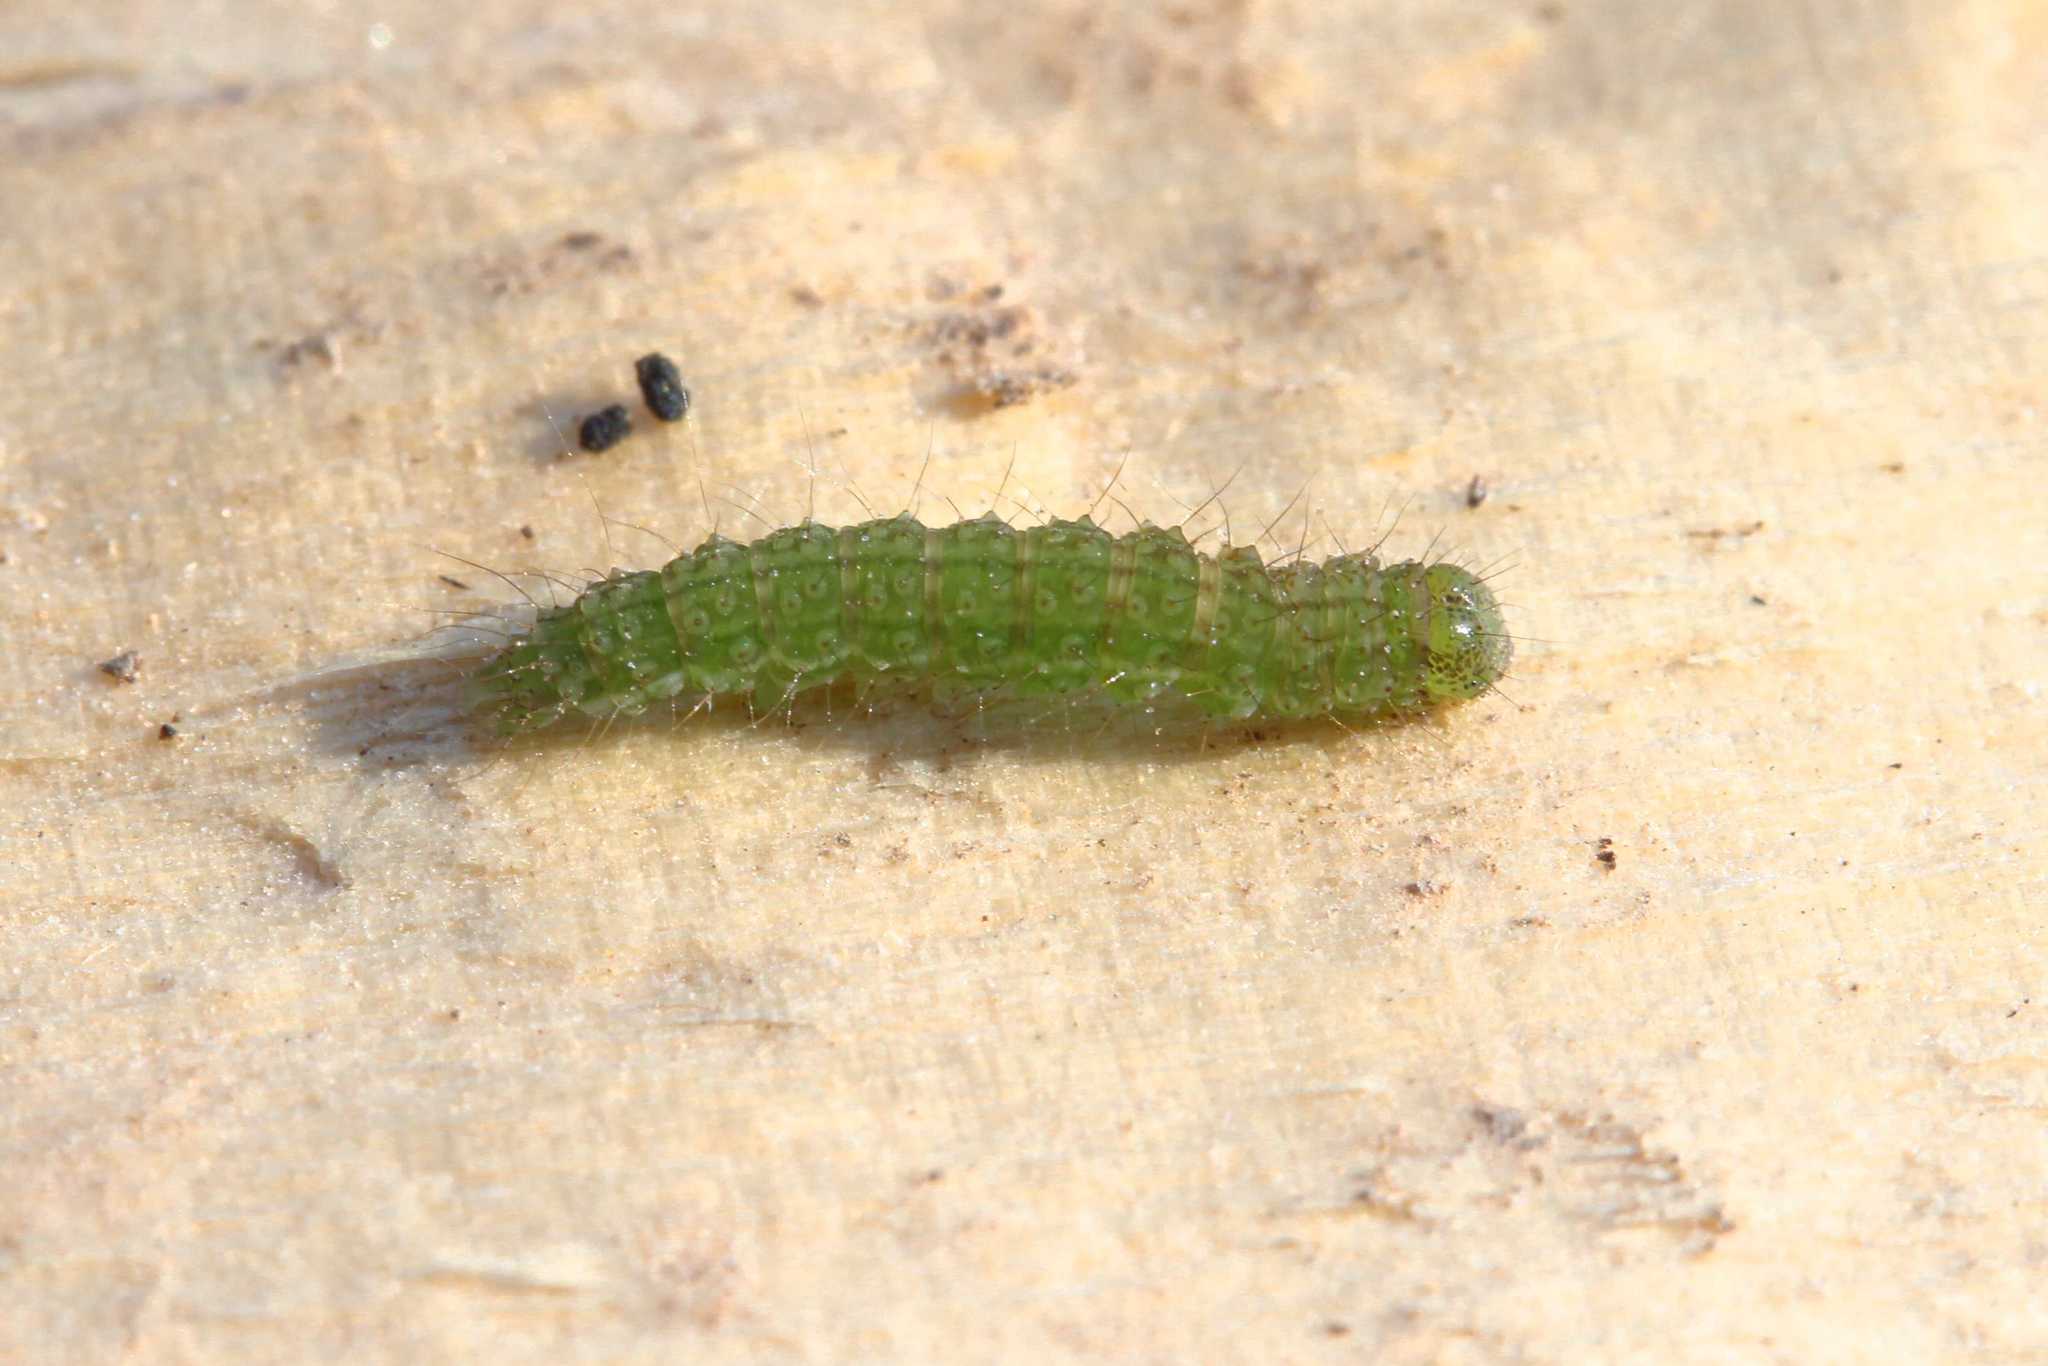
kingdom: Animalia
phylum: Arthropoda
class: Insecta
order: Lepidoptera
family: Erebidae
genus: Hypena
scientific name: Hypena proboscidalis
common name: Snout
